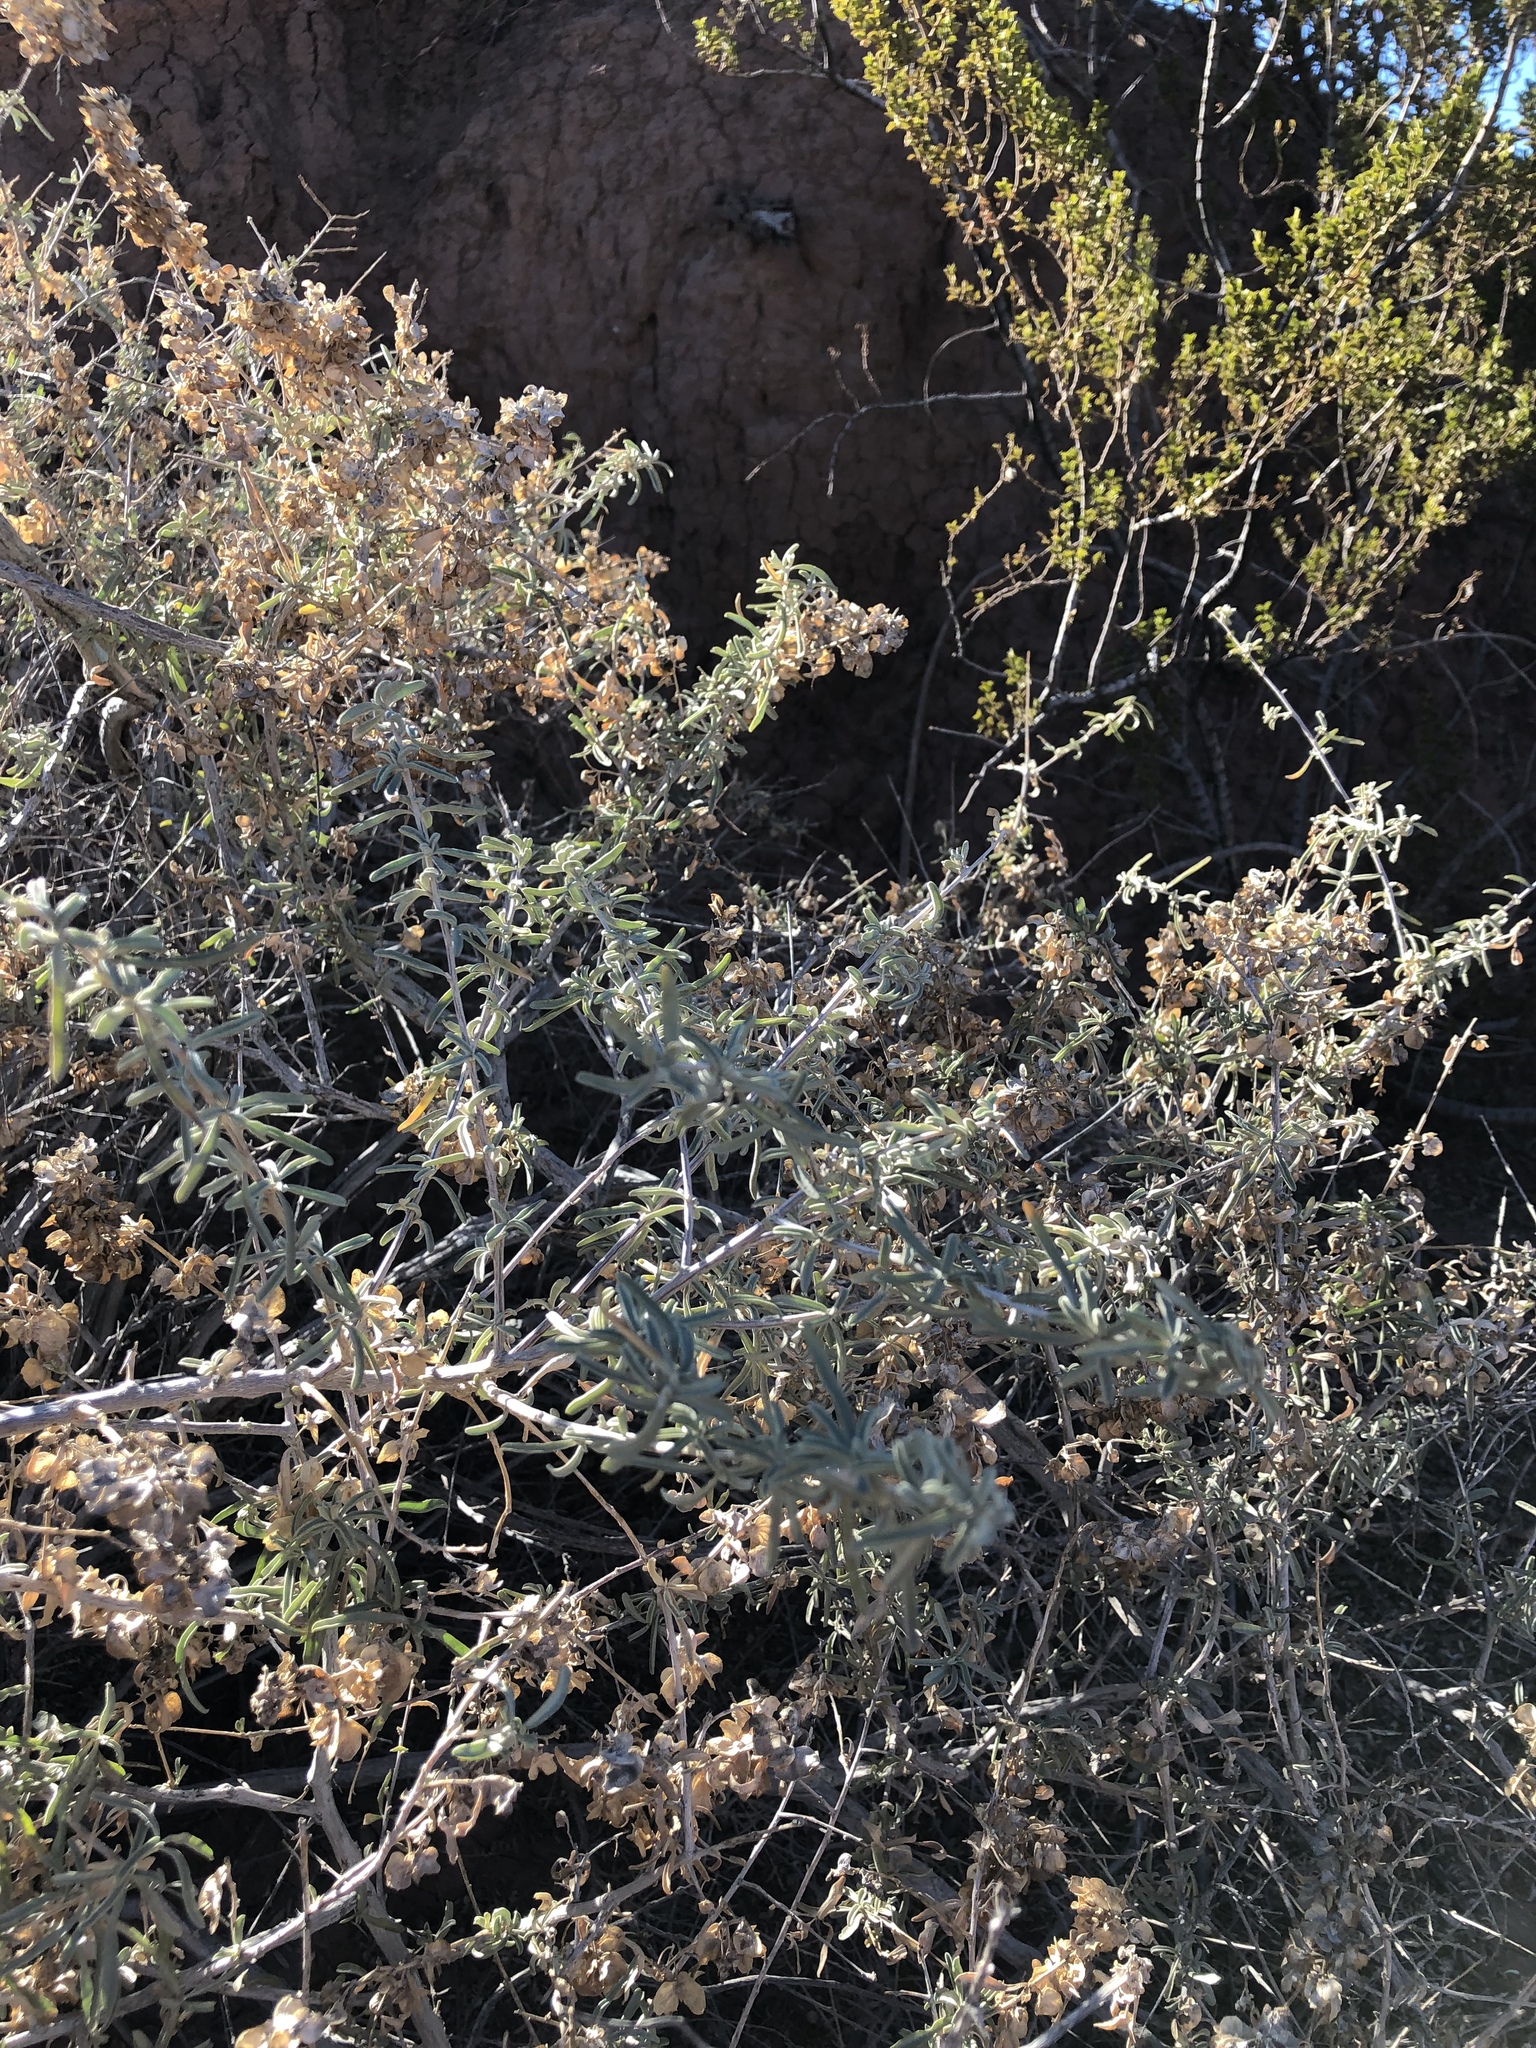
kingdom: Plantae
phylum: Tracheophyta
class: Magnoliopsida
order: Caryophyllales
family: Amaranthaceae
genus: Atriplex
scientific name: Atriplex canescens
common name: Four-wing saltbush
